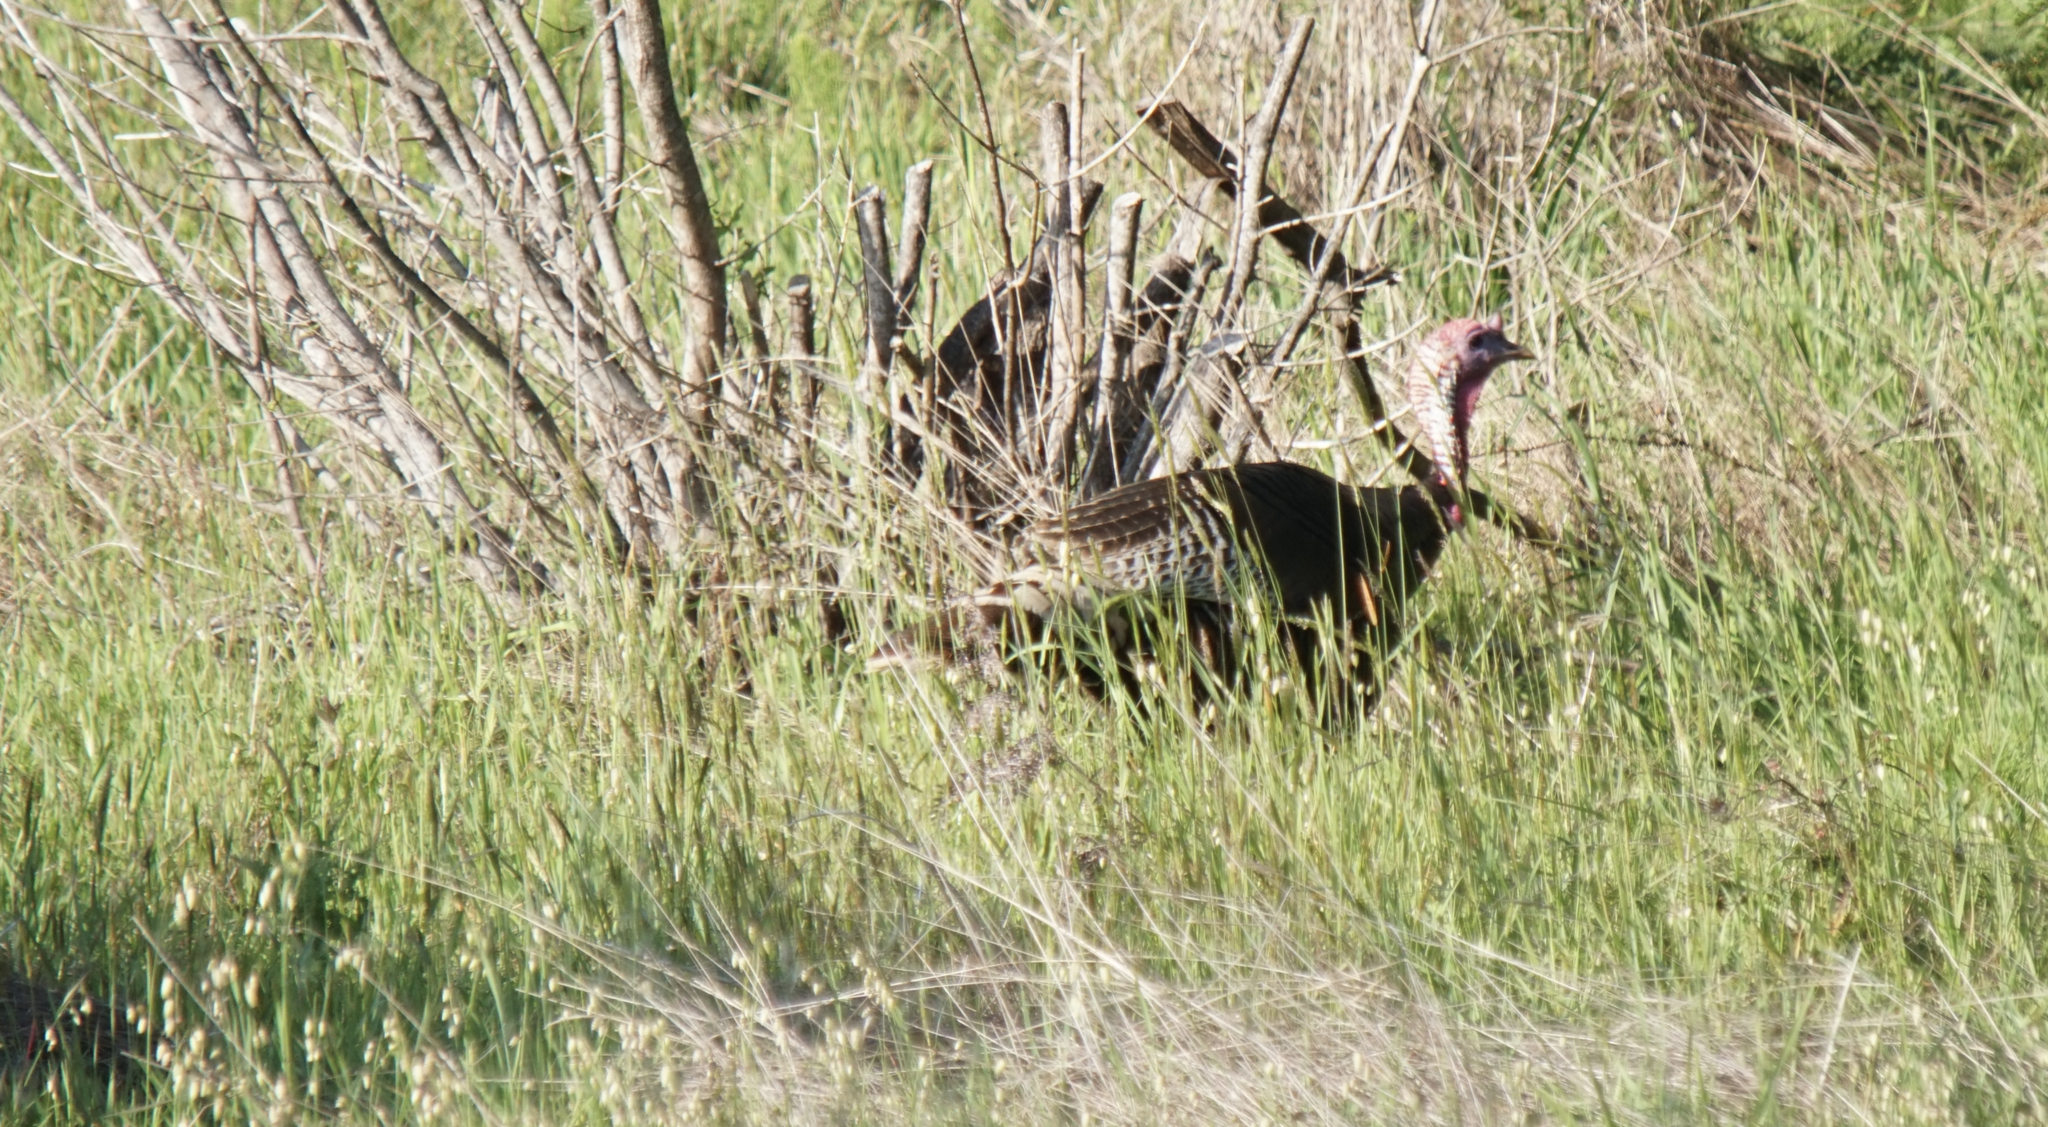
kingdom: Animalia
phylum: Chordata
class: Aves
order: Galliformes
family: Phasianidae
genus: Meleagris
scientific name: Meleagris gallopavo
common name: Wild turkey
